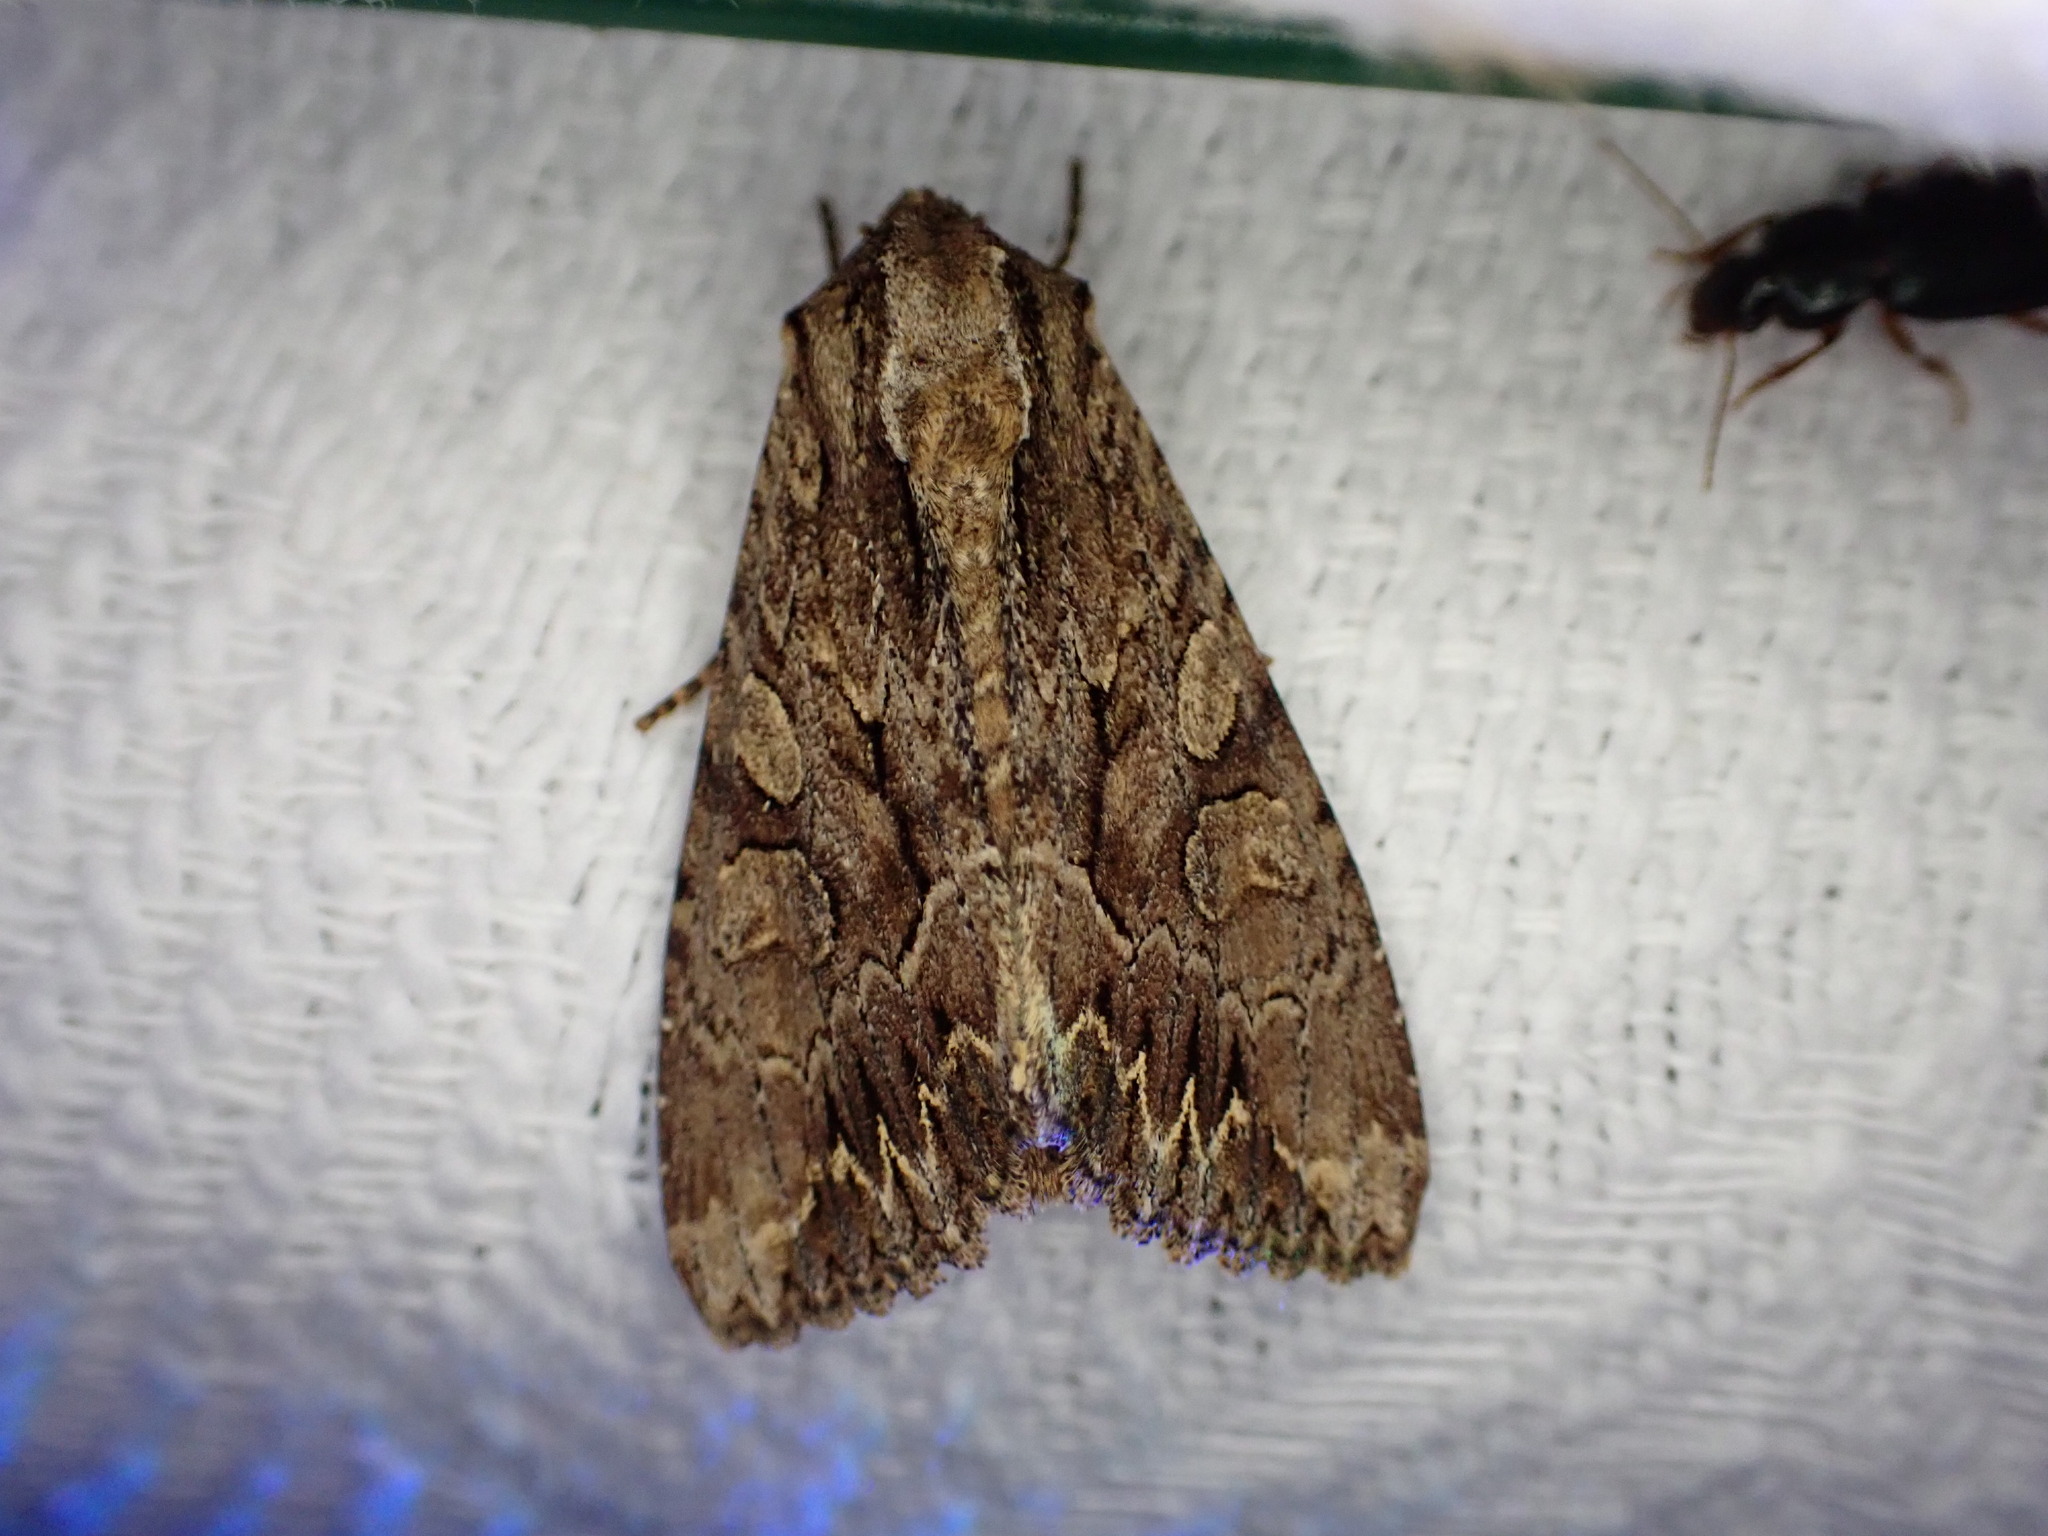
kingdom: Animalia
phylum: Arthropoda
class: Insecta
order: Lepidoptera
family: Noctuidae
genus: Apamea
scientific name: Apamea monoglypha
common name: Dark arches
